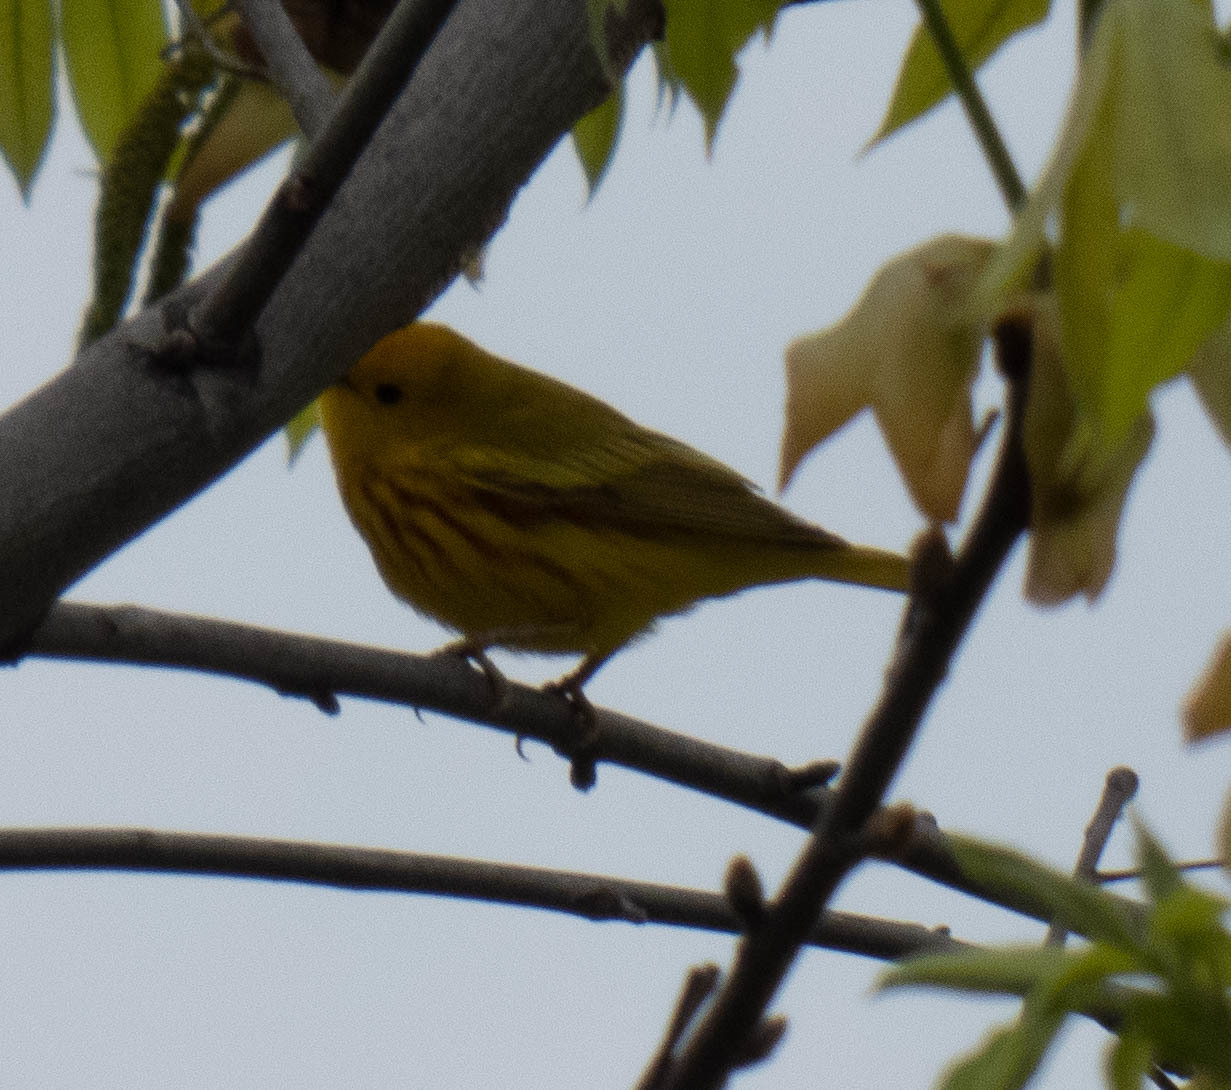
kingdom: Animalia
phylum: Chordata
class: Aves
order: Passeriformes
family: Parulidae
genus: Setophaga
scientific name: Setophaga petechia
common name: Yellow warbler
